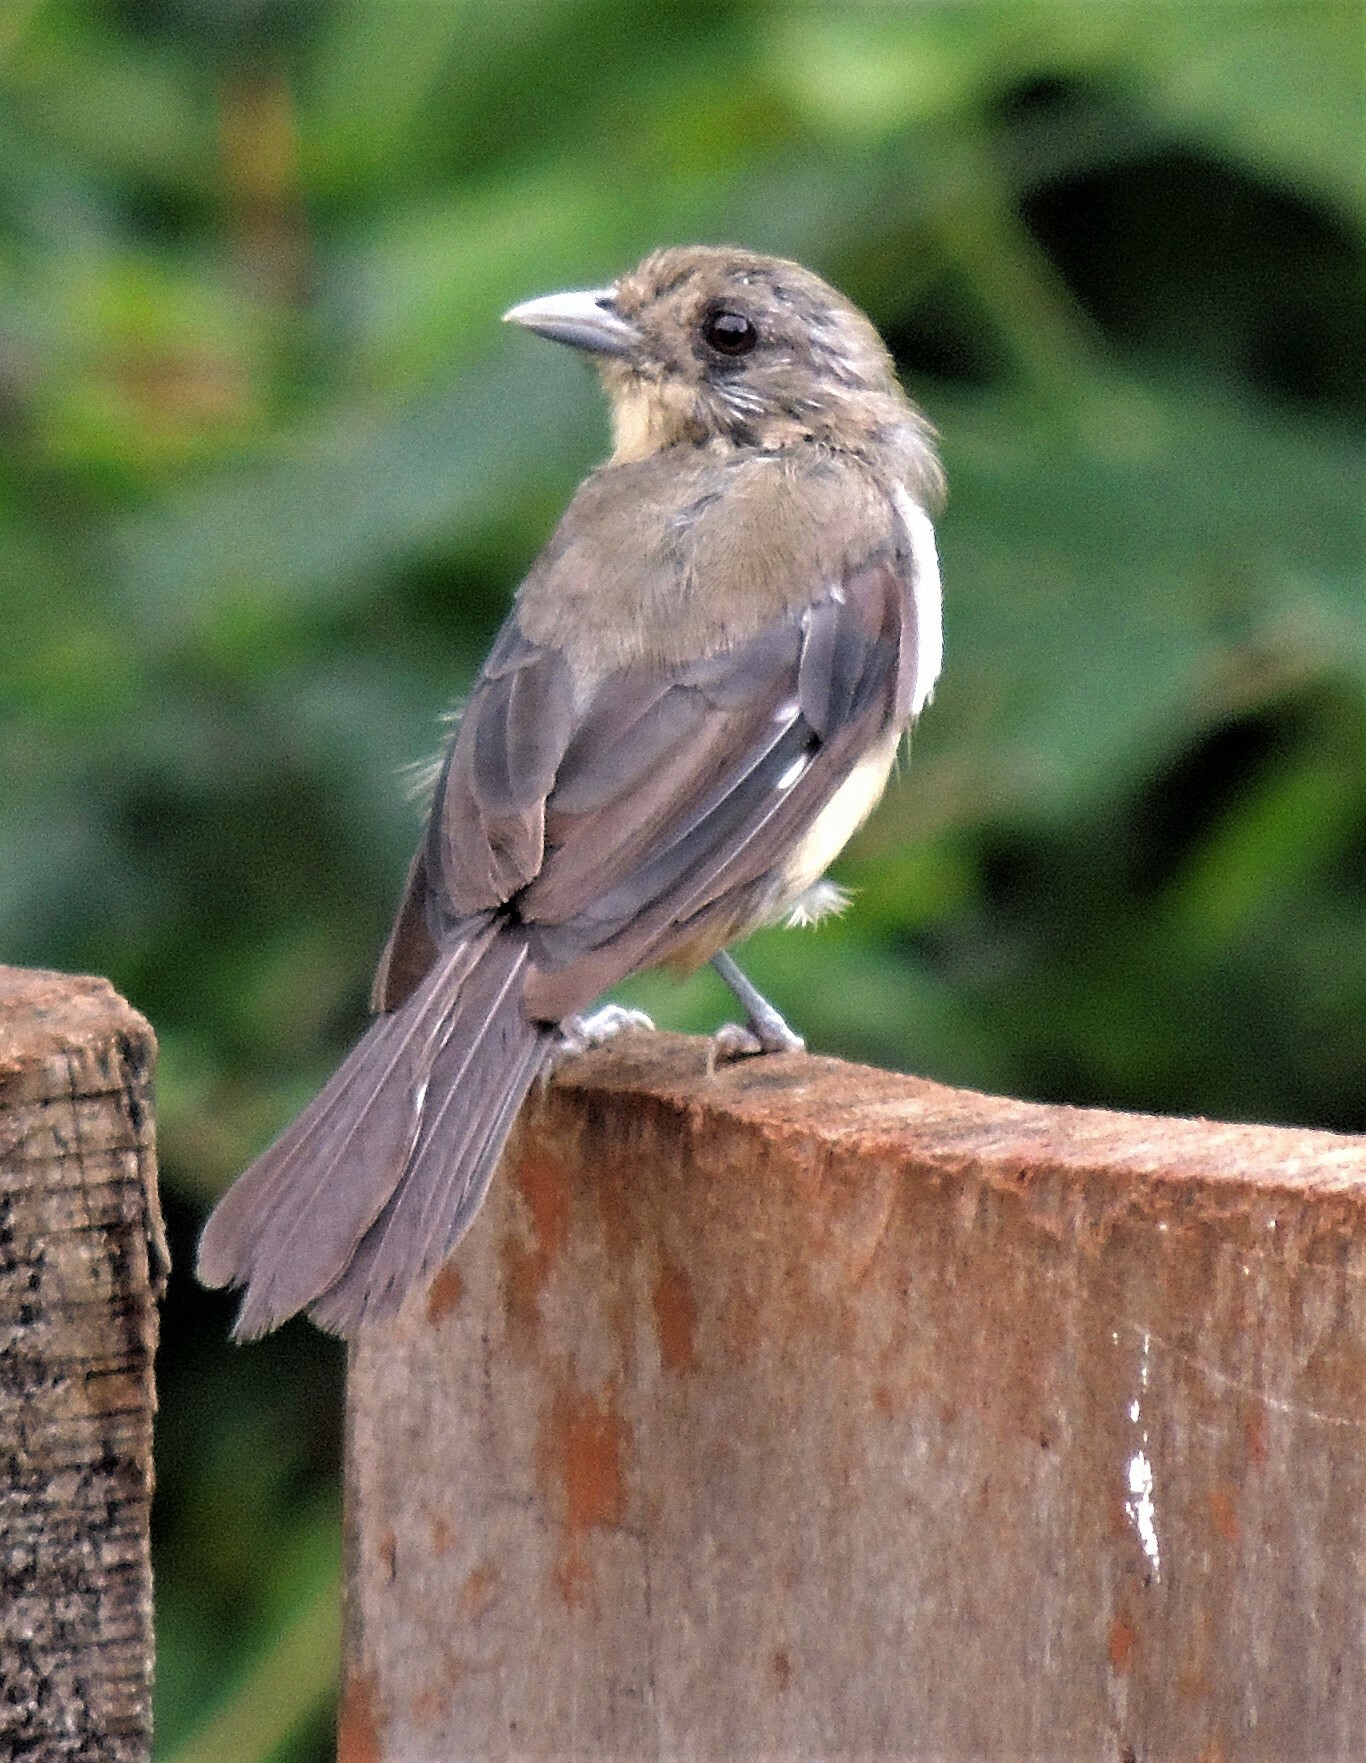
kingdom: Animalia
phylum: Chordata
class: Aves
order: Passeriformes
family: Thraupidae
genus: Trichothraupis
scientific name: Trichothraupis melanops
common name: Black-goggled tanager
